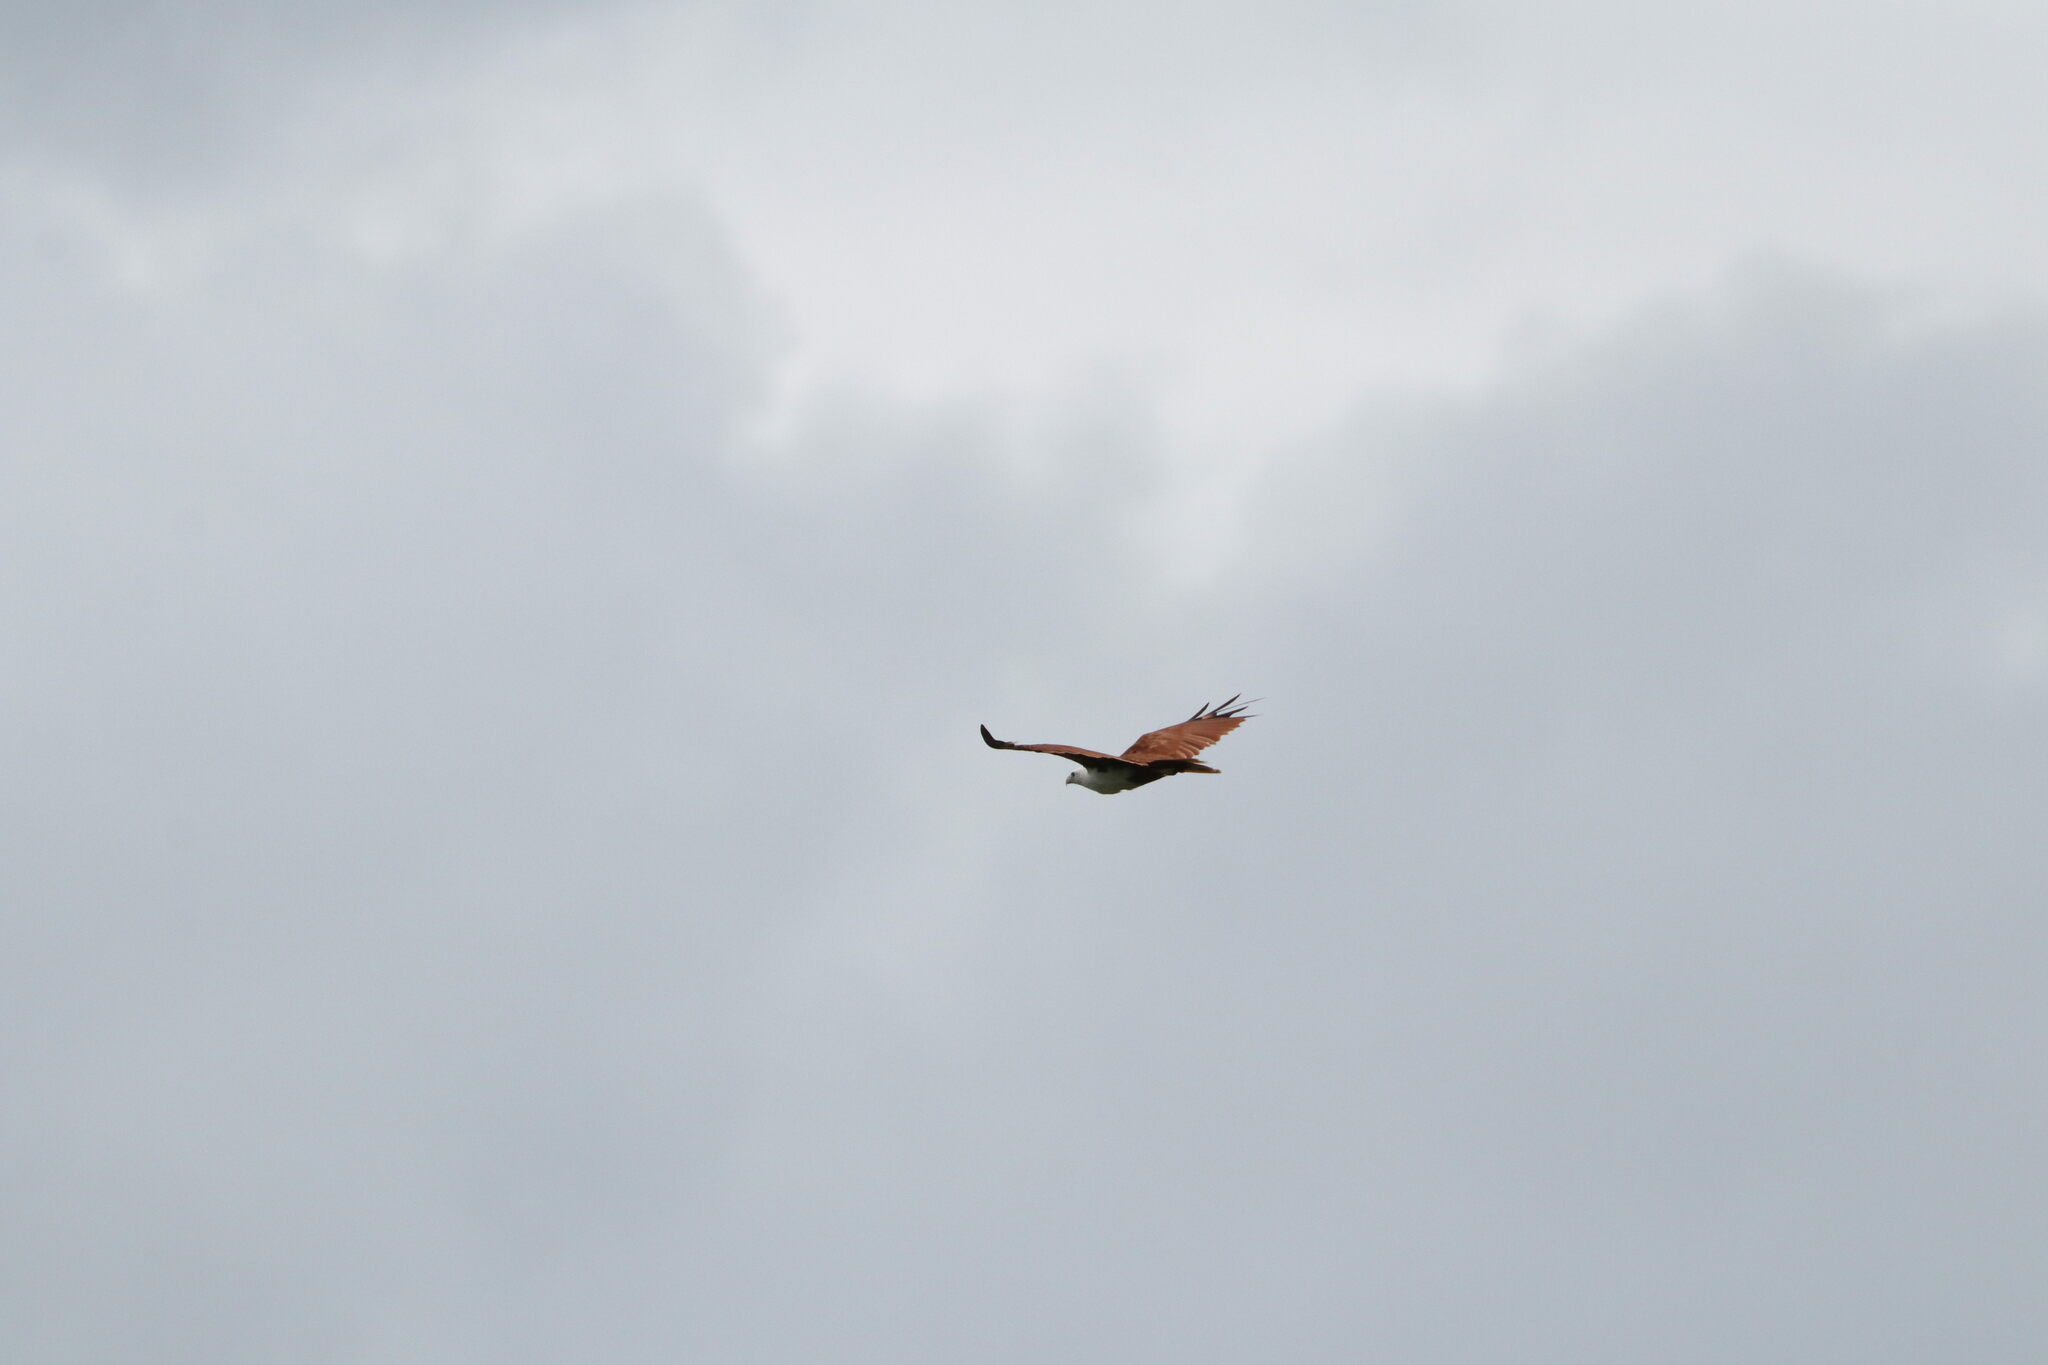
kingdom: Animalia
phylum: Chordata
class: Aves
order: Accipitriformes
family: Accipitridae
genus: Haliastur
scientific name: Haliastur indus
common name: Brahminy kite
